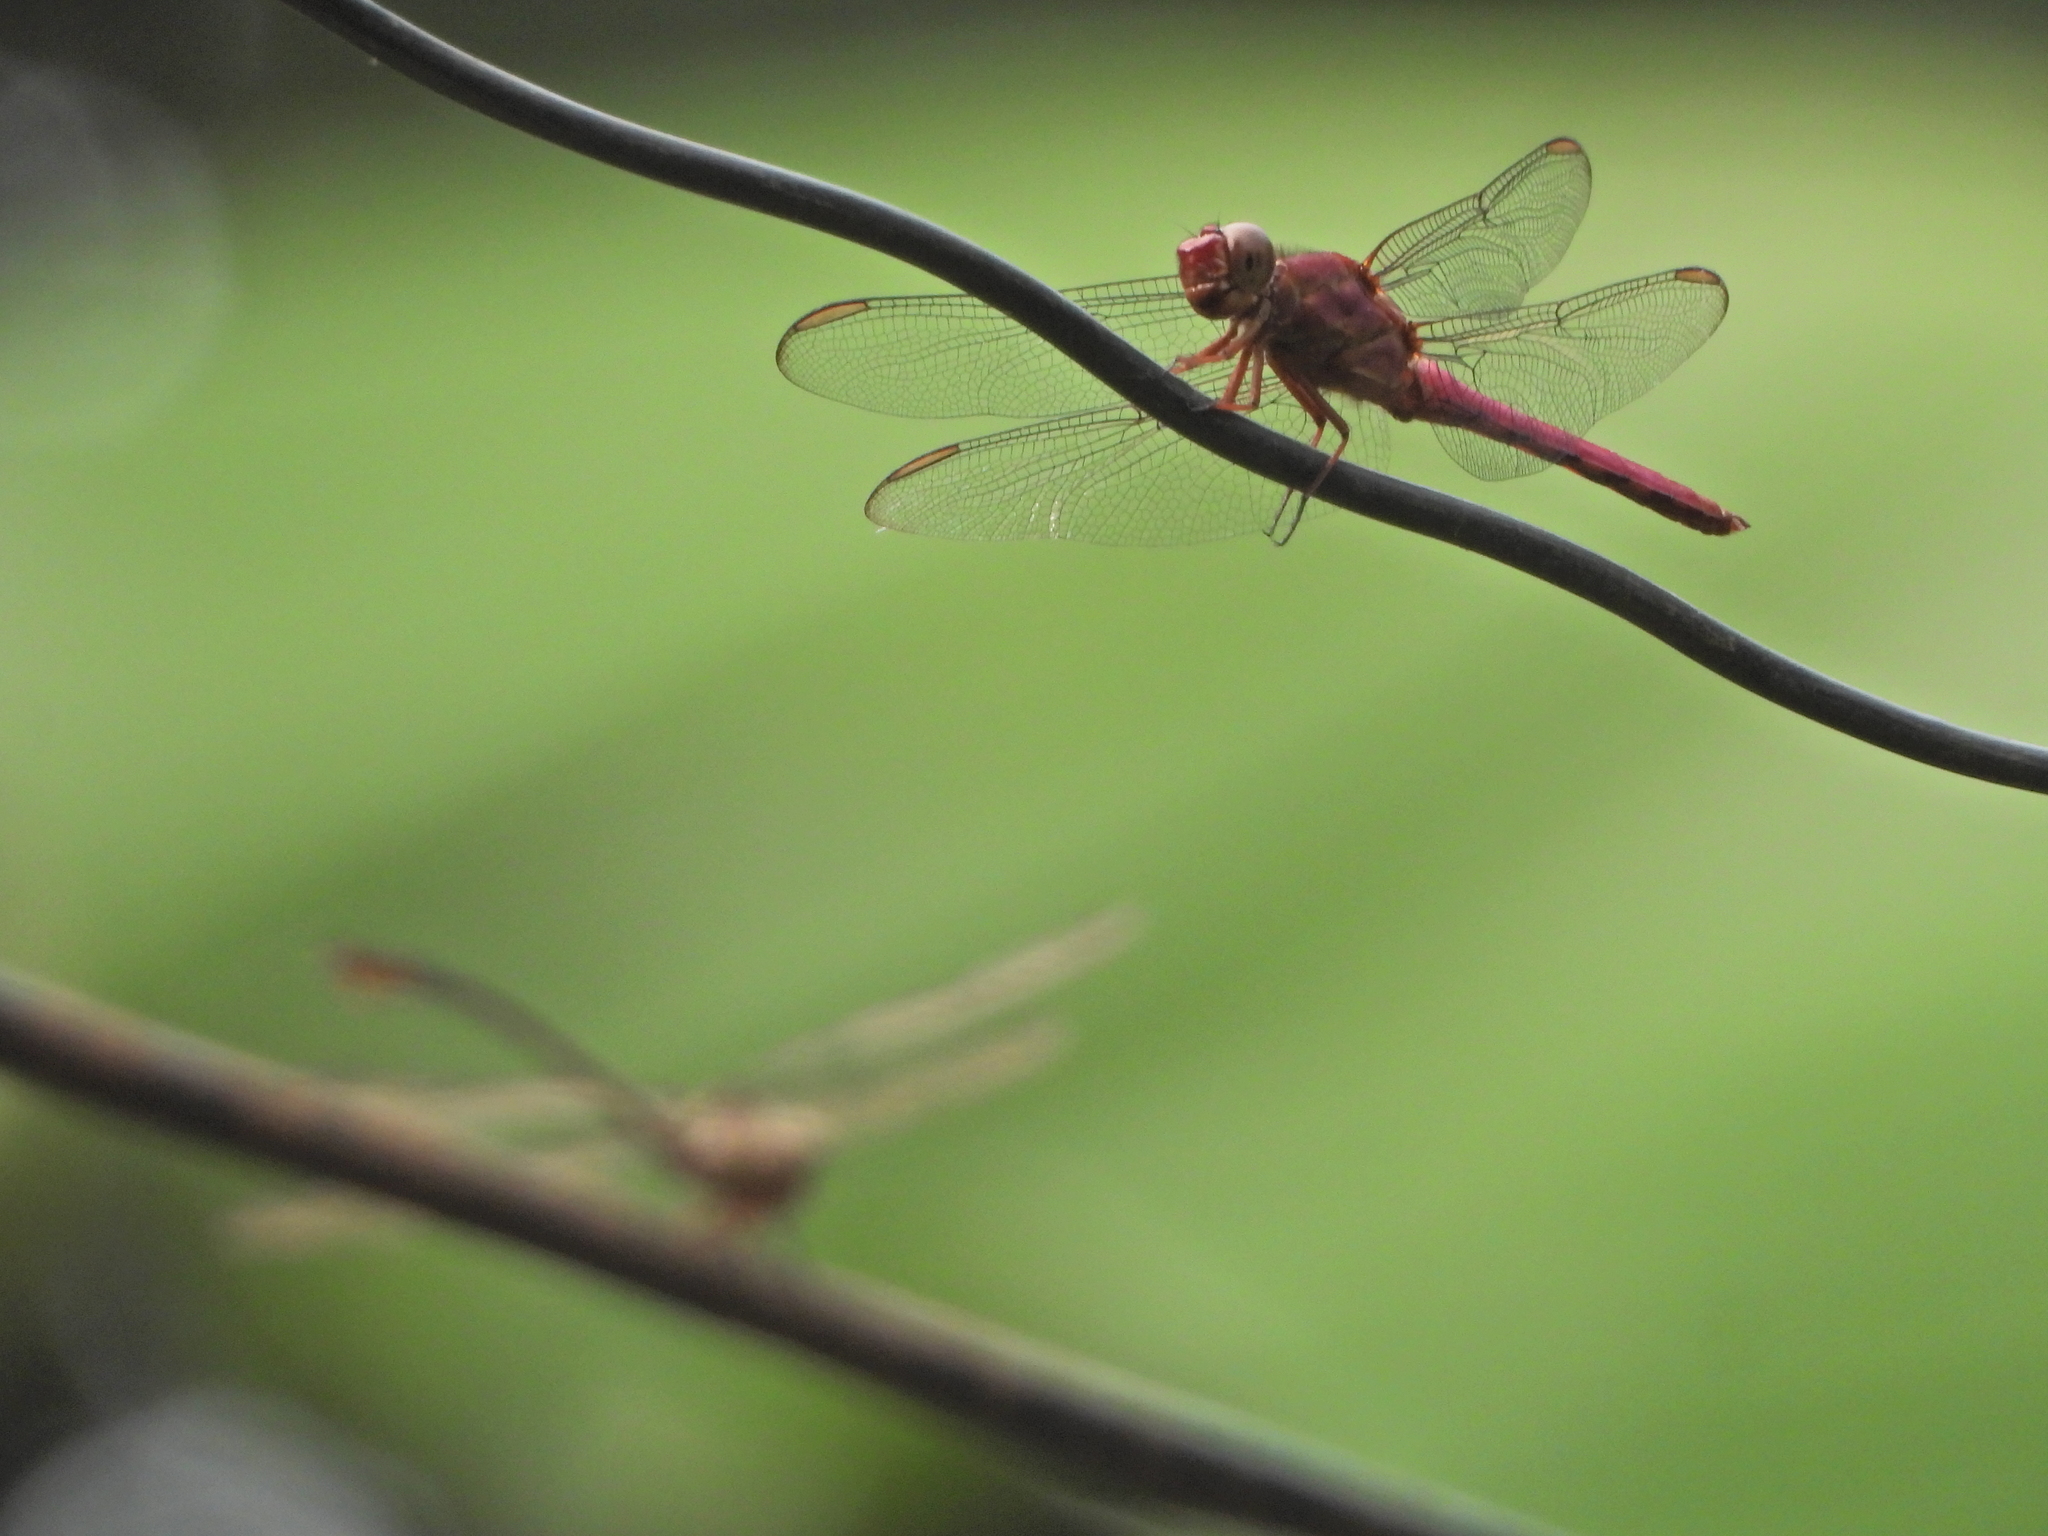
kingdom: Animalia
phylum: Arthropoda
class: Insecta
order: Odonata
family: Libellulidae
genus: Orthemis
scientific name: Orthemis discolor
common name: Carmine skimmer
